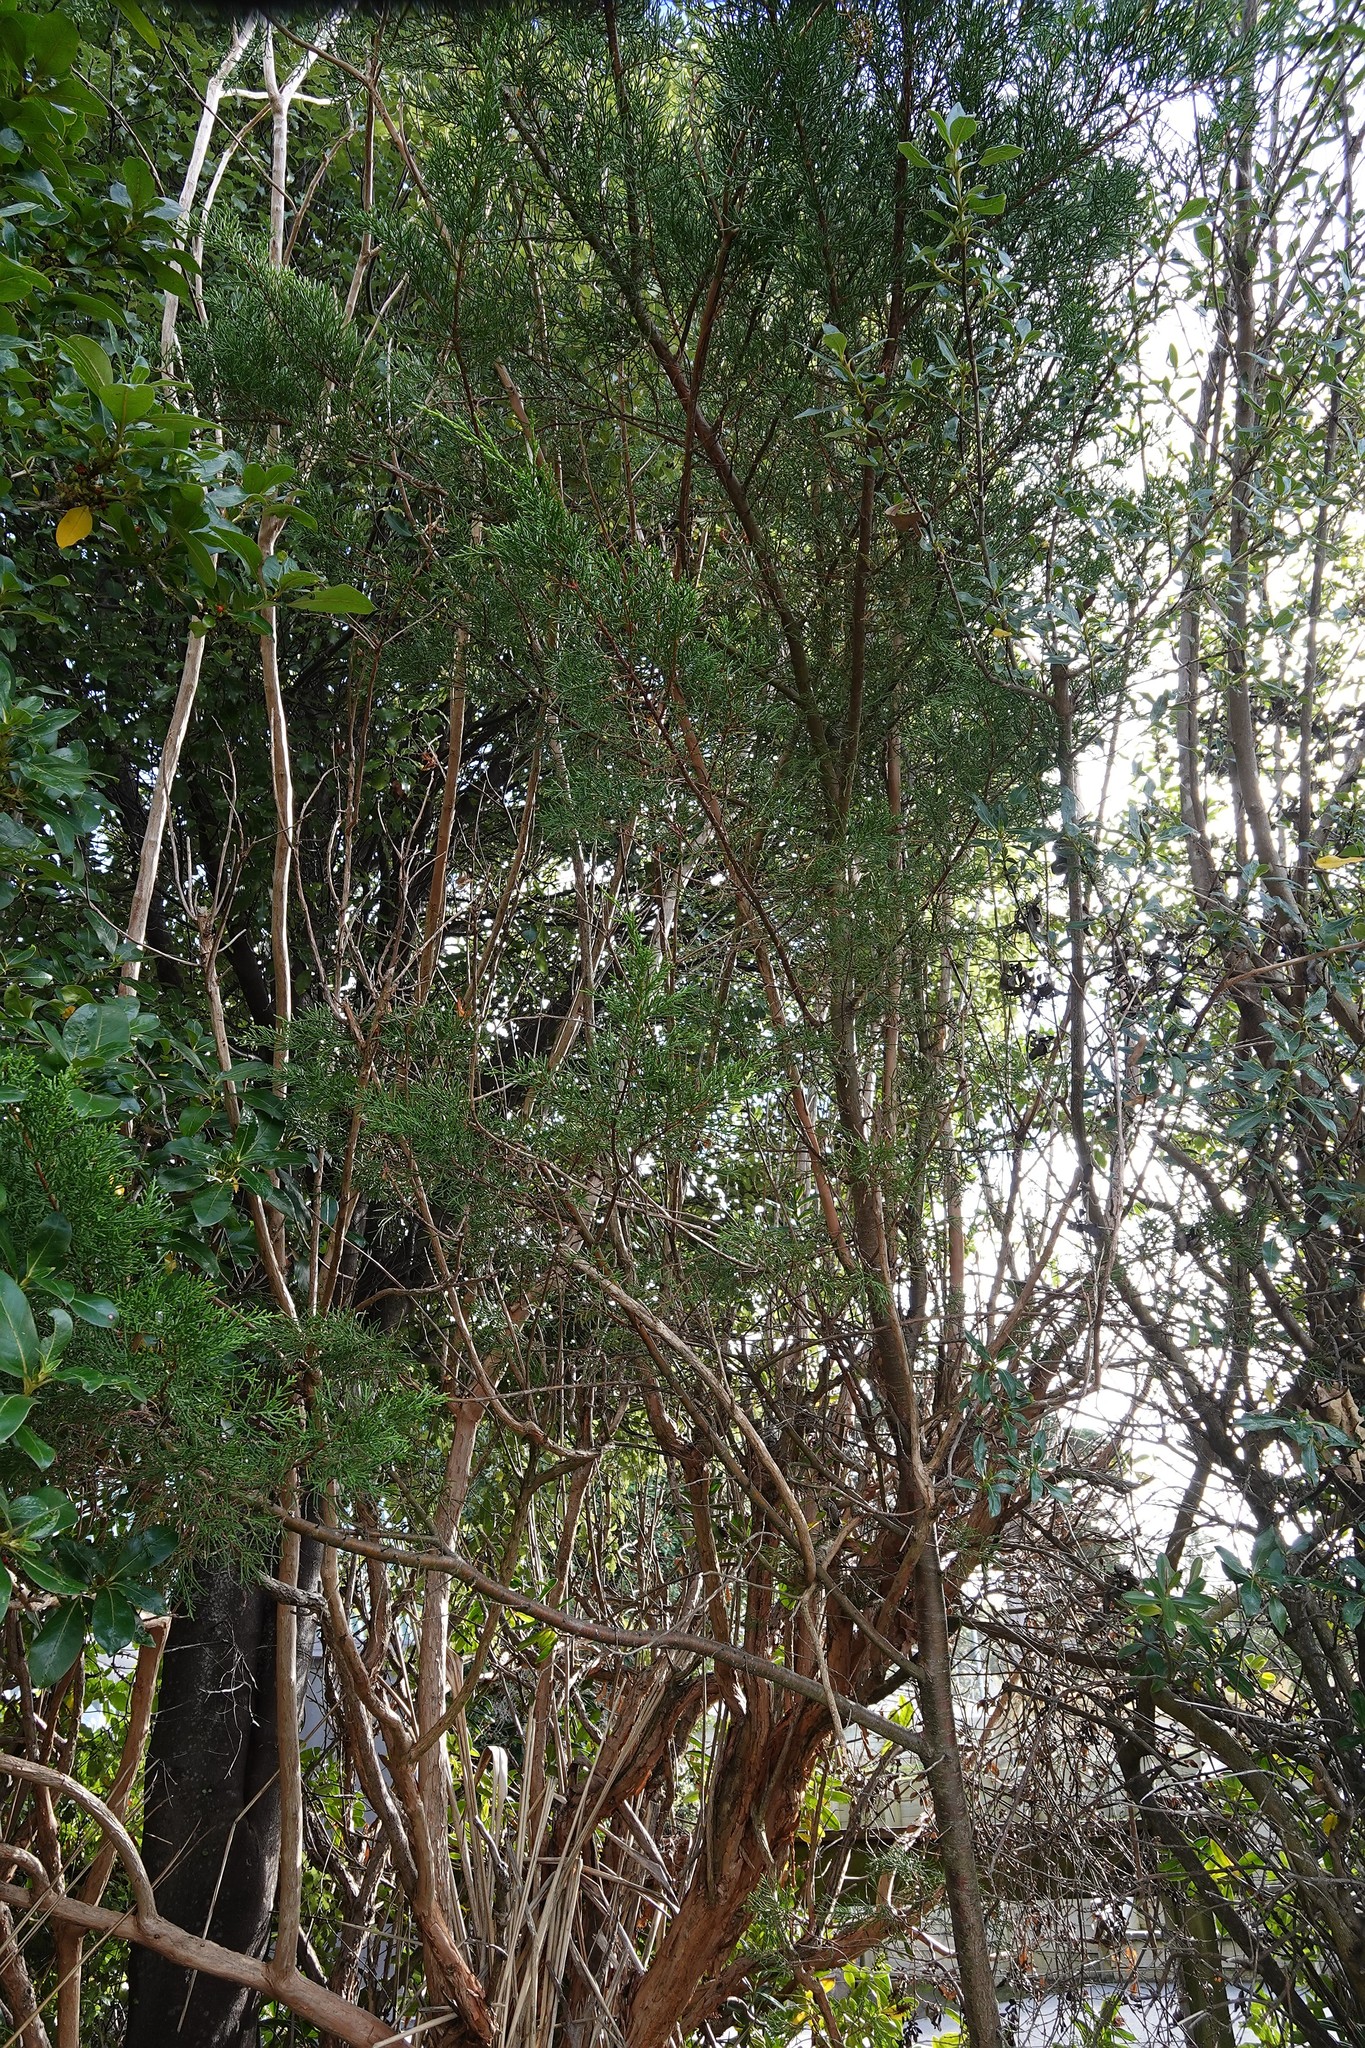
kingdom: Plantae
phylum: Tracheophyta
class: Pinopsida
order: Pinales
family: Cupressaceae
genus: Cupressus
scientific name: Cupressus macrocarpa
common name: Monterey cypress
